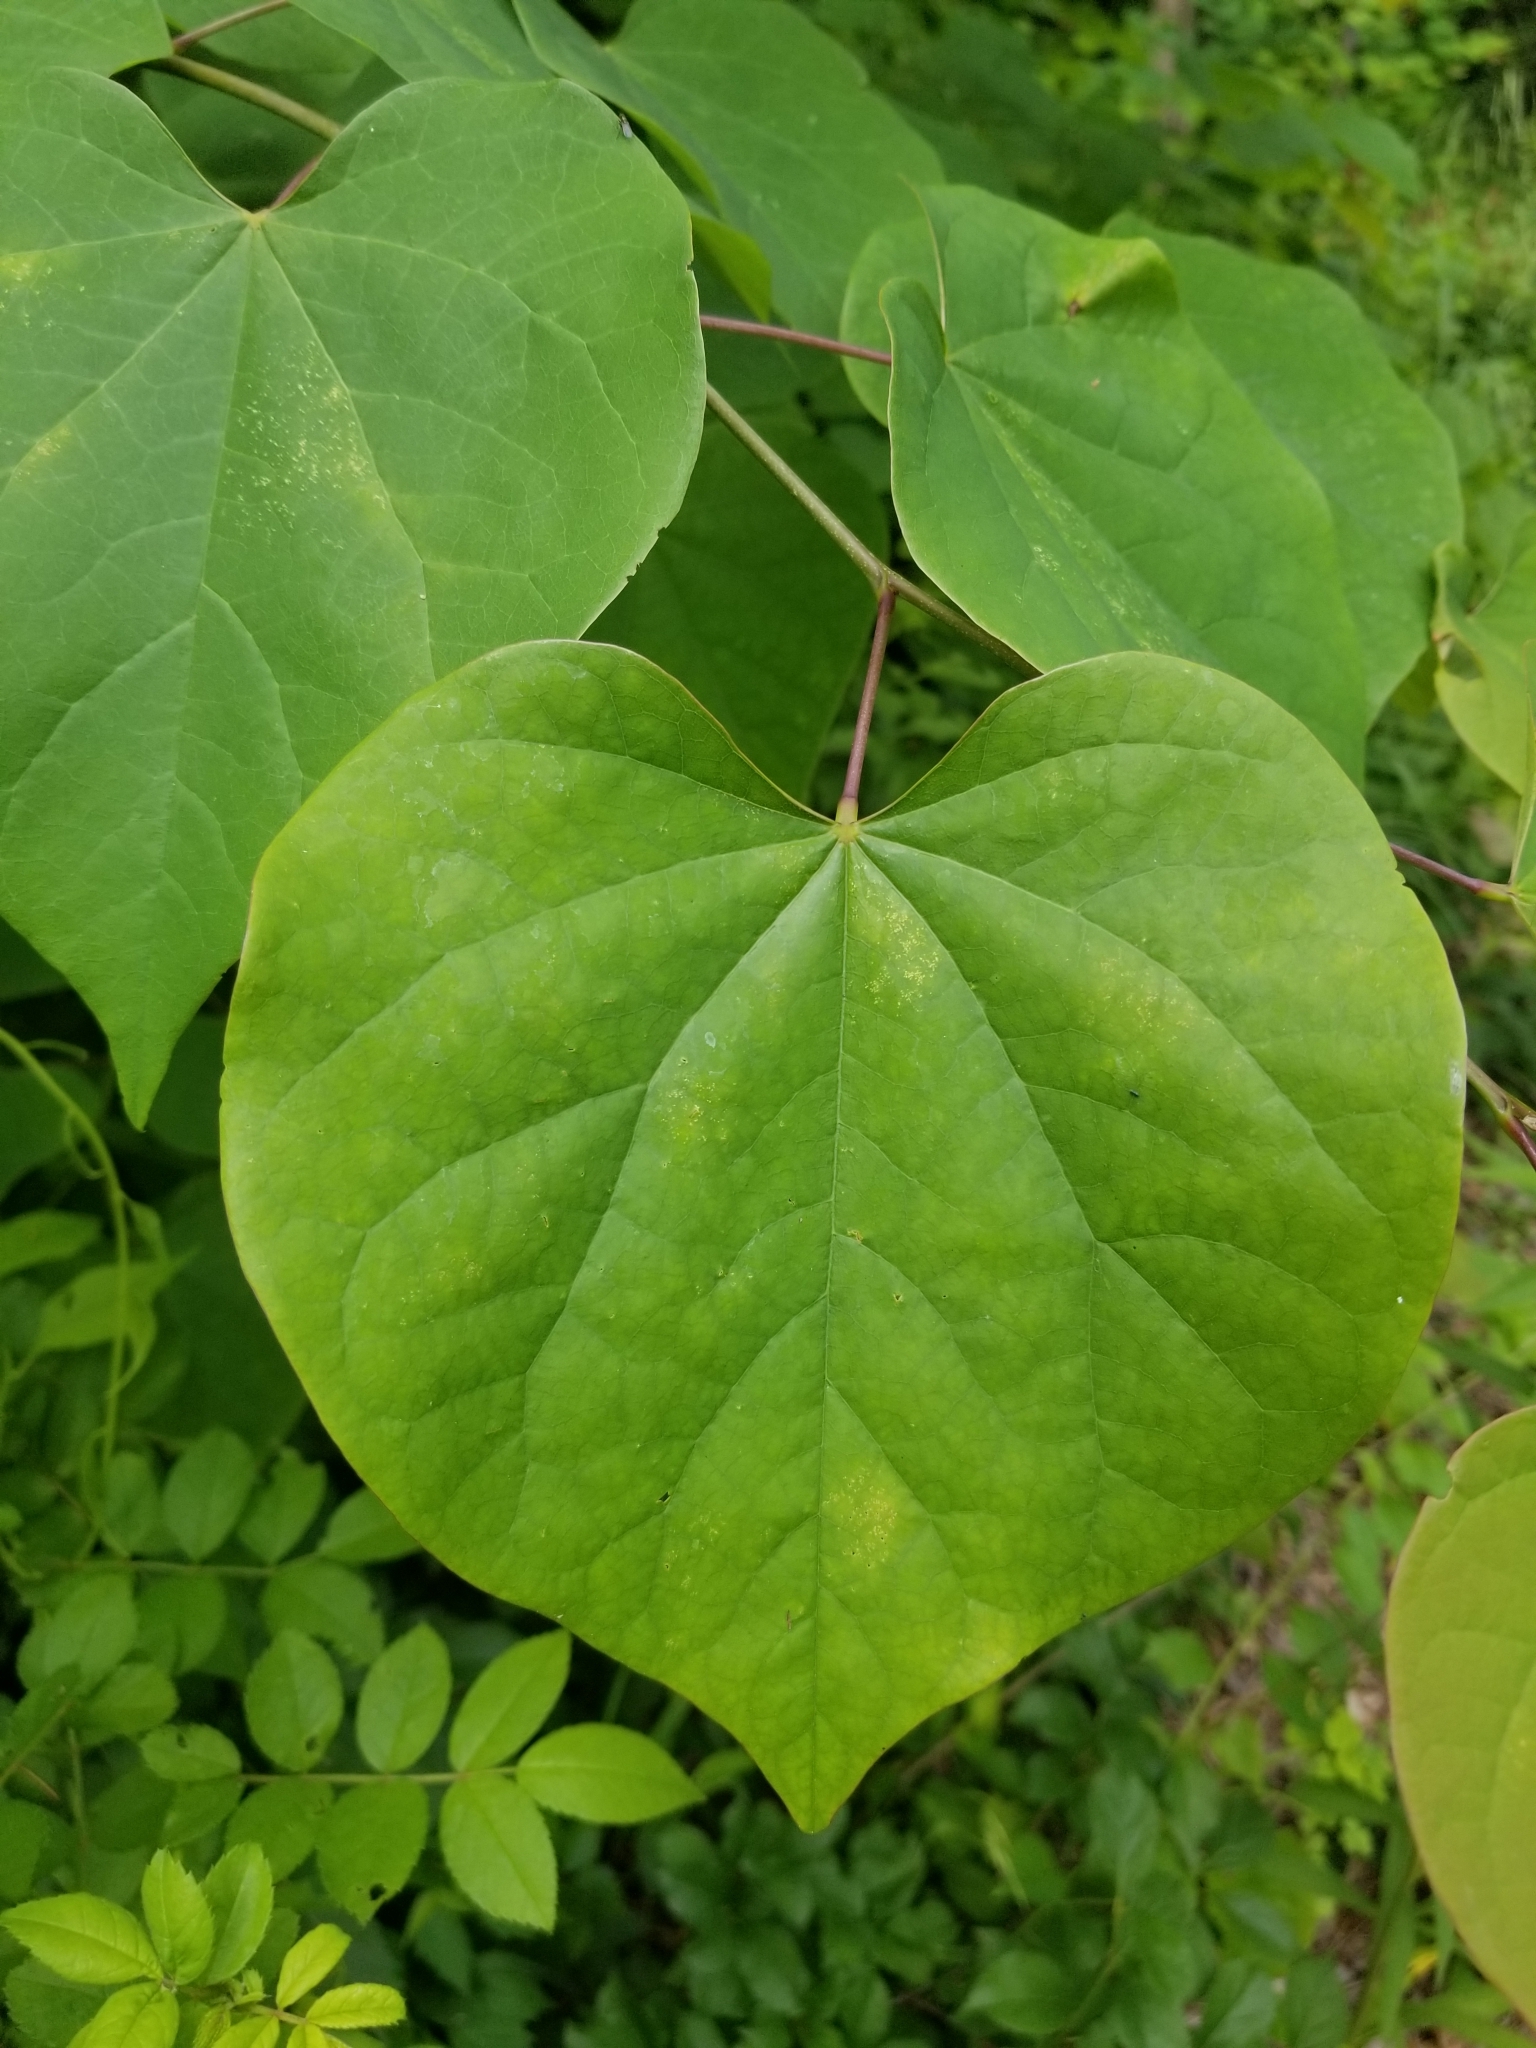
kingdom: Plantae
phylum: Tracheophyta
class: Magnoliopsida
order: Fabales
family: Fabaceae
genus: Cercis
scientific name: Cercis canadensis
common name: Eastern redbud
